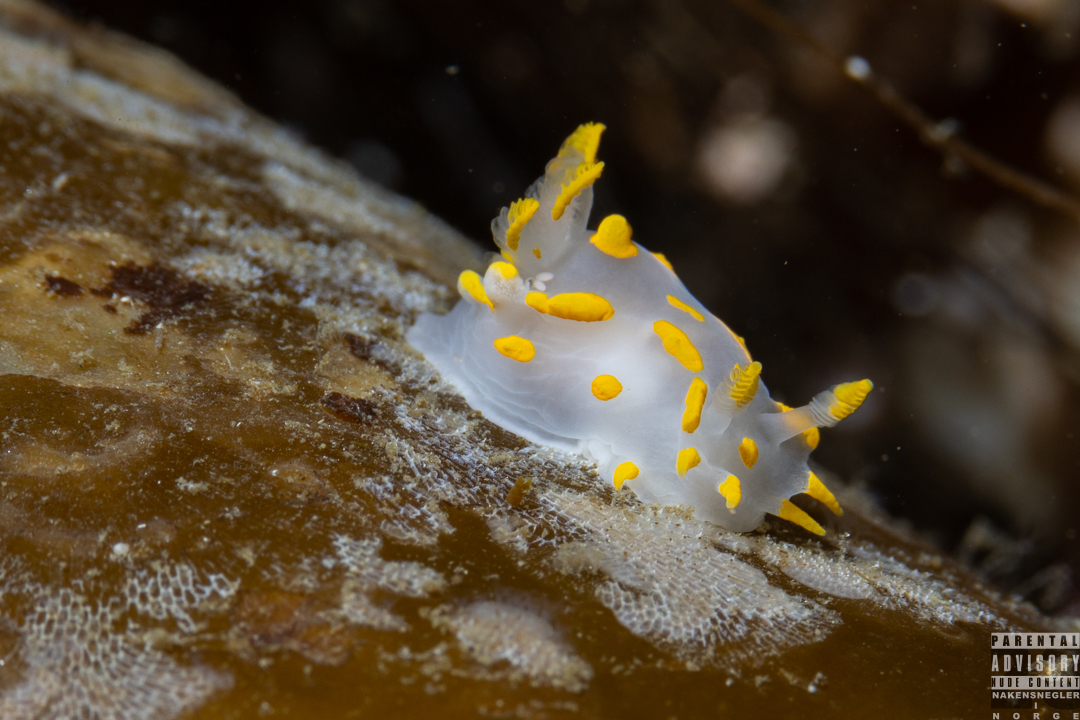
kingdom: Animalia
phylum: Mollusca
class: Gastropoda
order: Nudibranchia
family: Polyceridae
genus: Polycera
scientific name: Polycera quadrilineata
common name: Four-striped polycera
